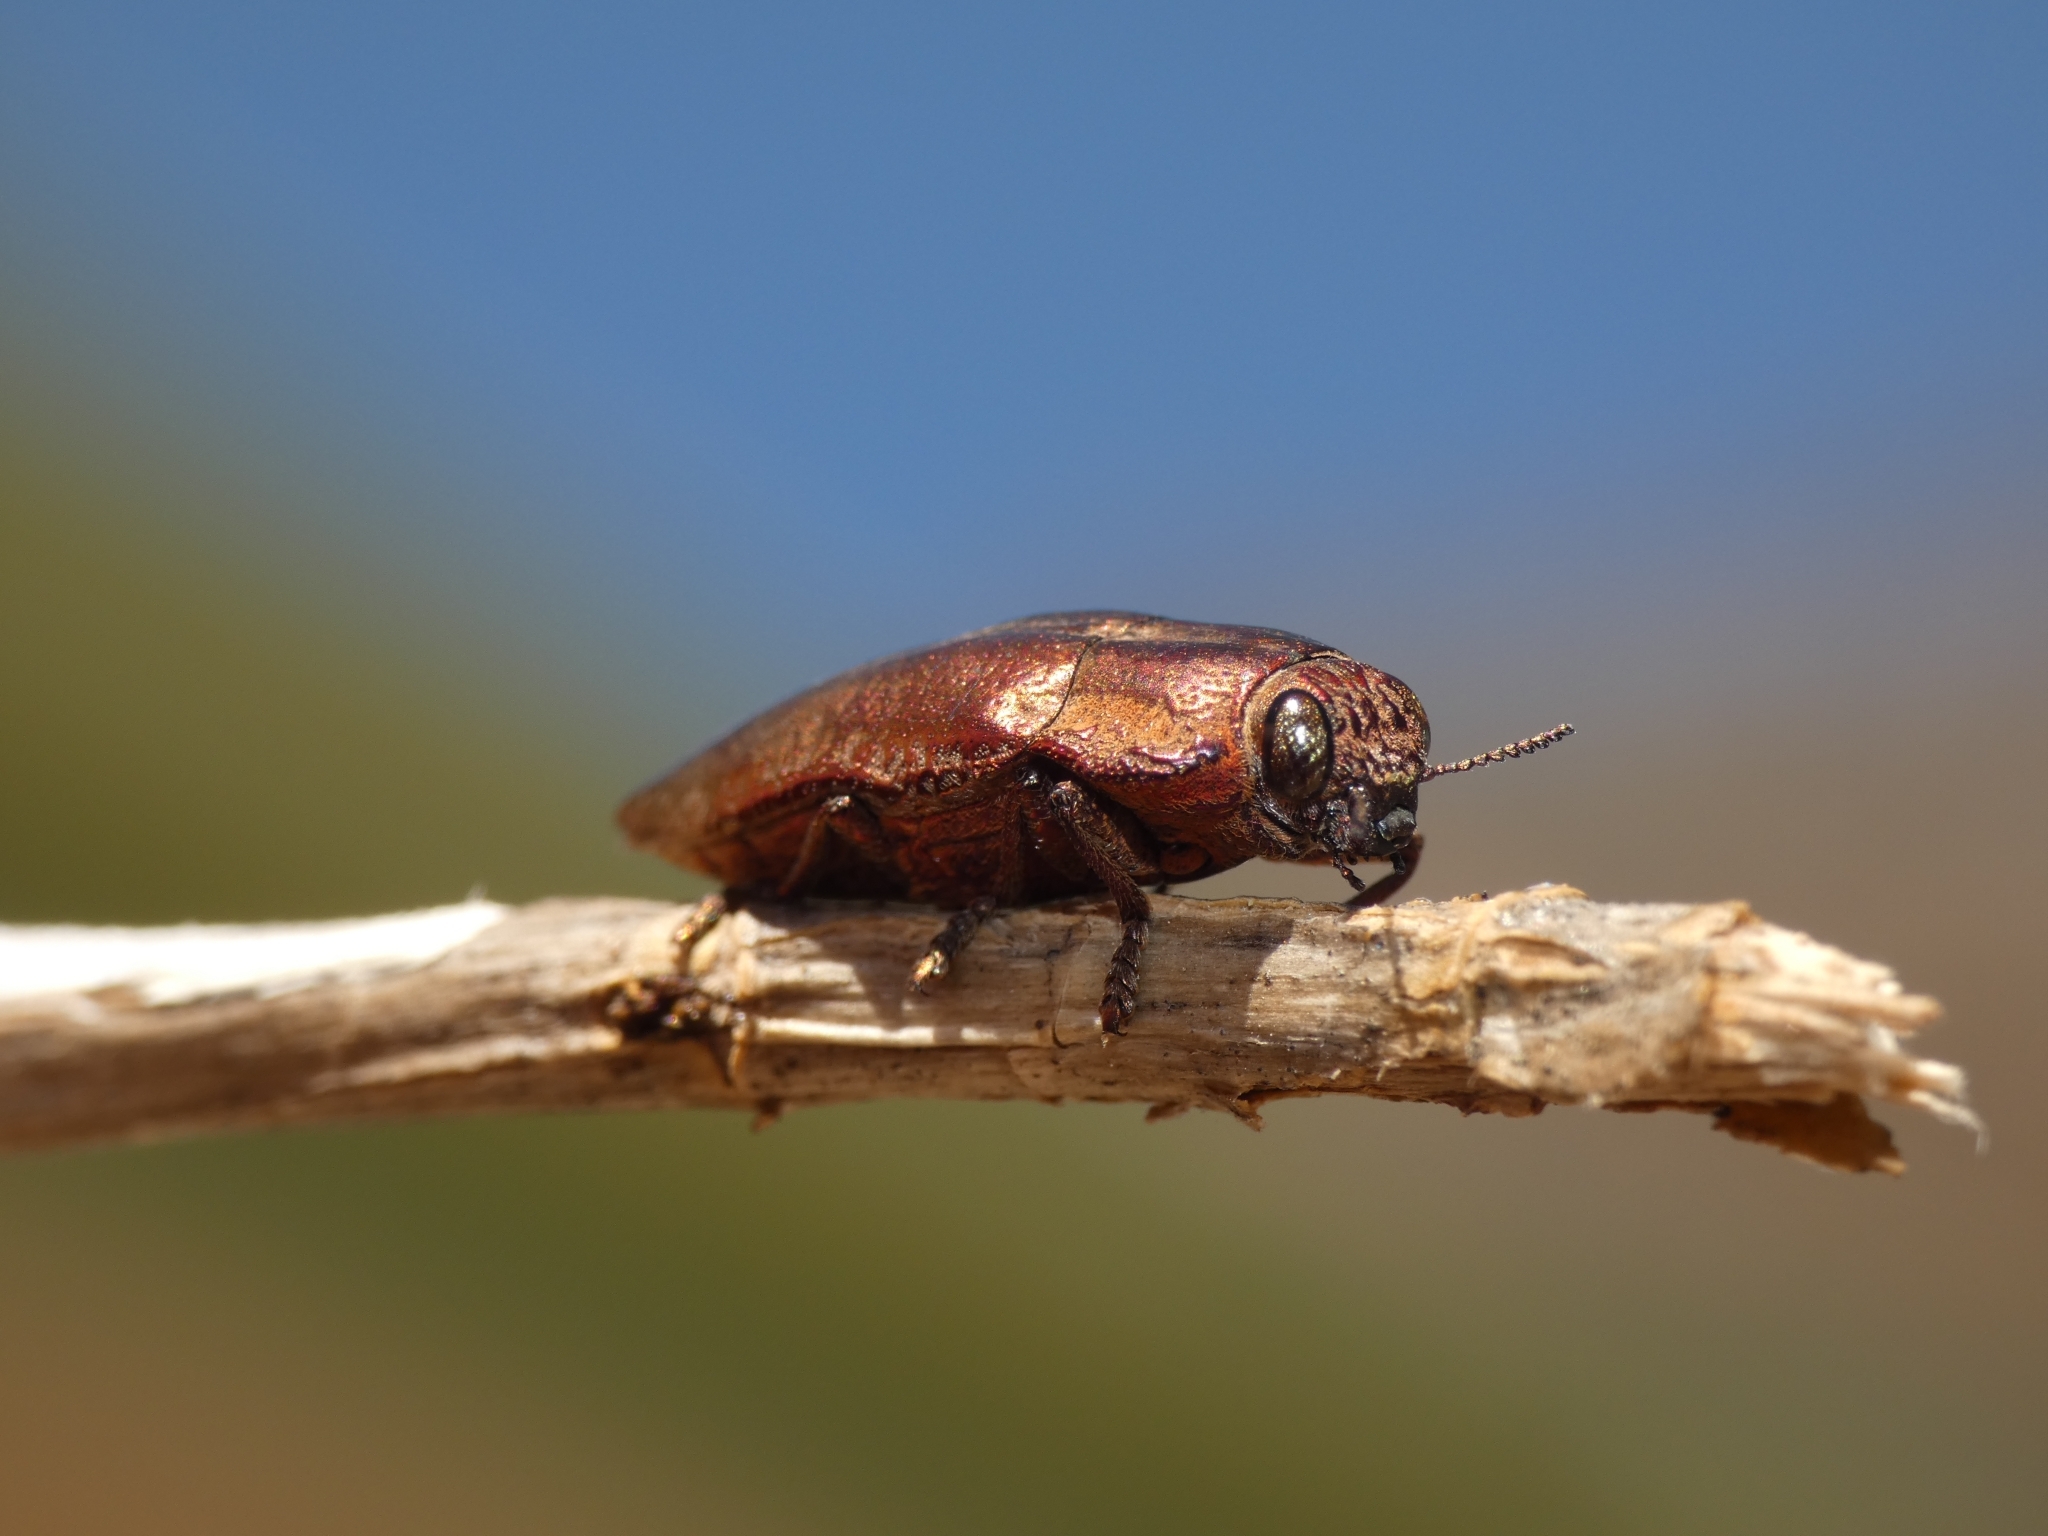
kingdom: Animalia
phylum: Arthropoda
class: Insecta
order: Coleoptera
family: Buprestidae
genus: Oedisterna
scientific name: Oedisterna cuprea
